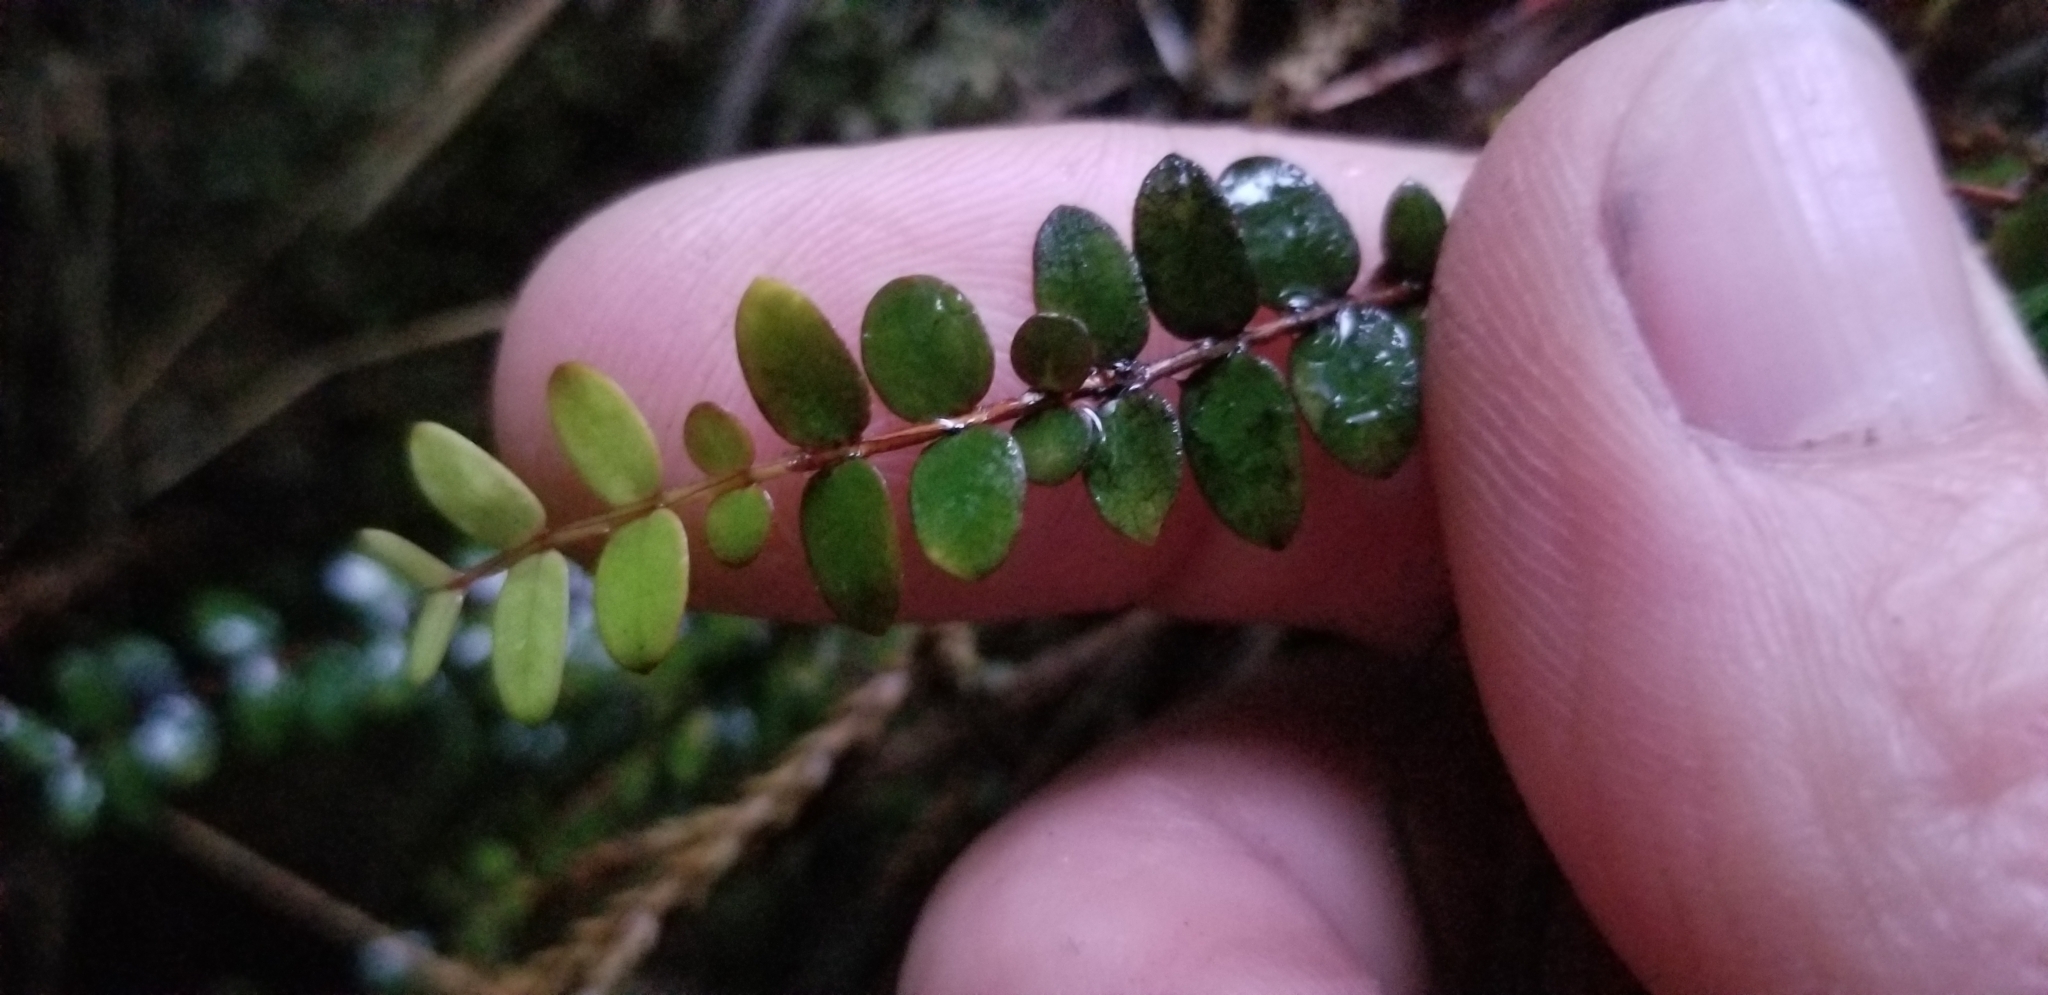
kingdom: Plantae
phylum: Tracheophyta
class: Magnoliopsida
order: Myrtales
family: Myrtaceae
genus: Metrosideros
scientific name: Metrosideros diffusa
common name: Small ratavine
